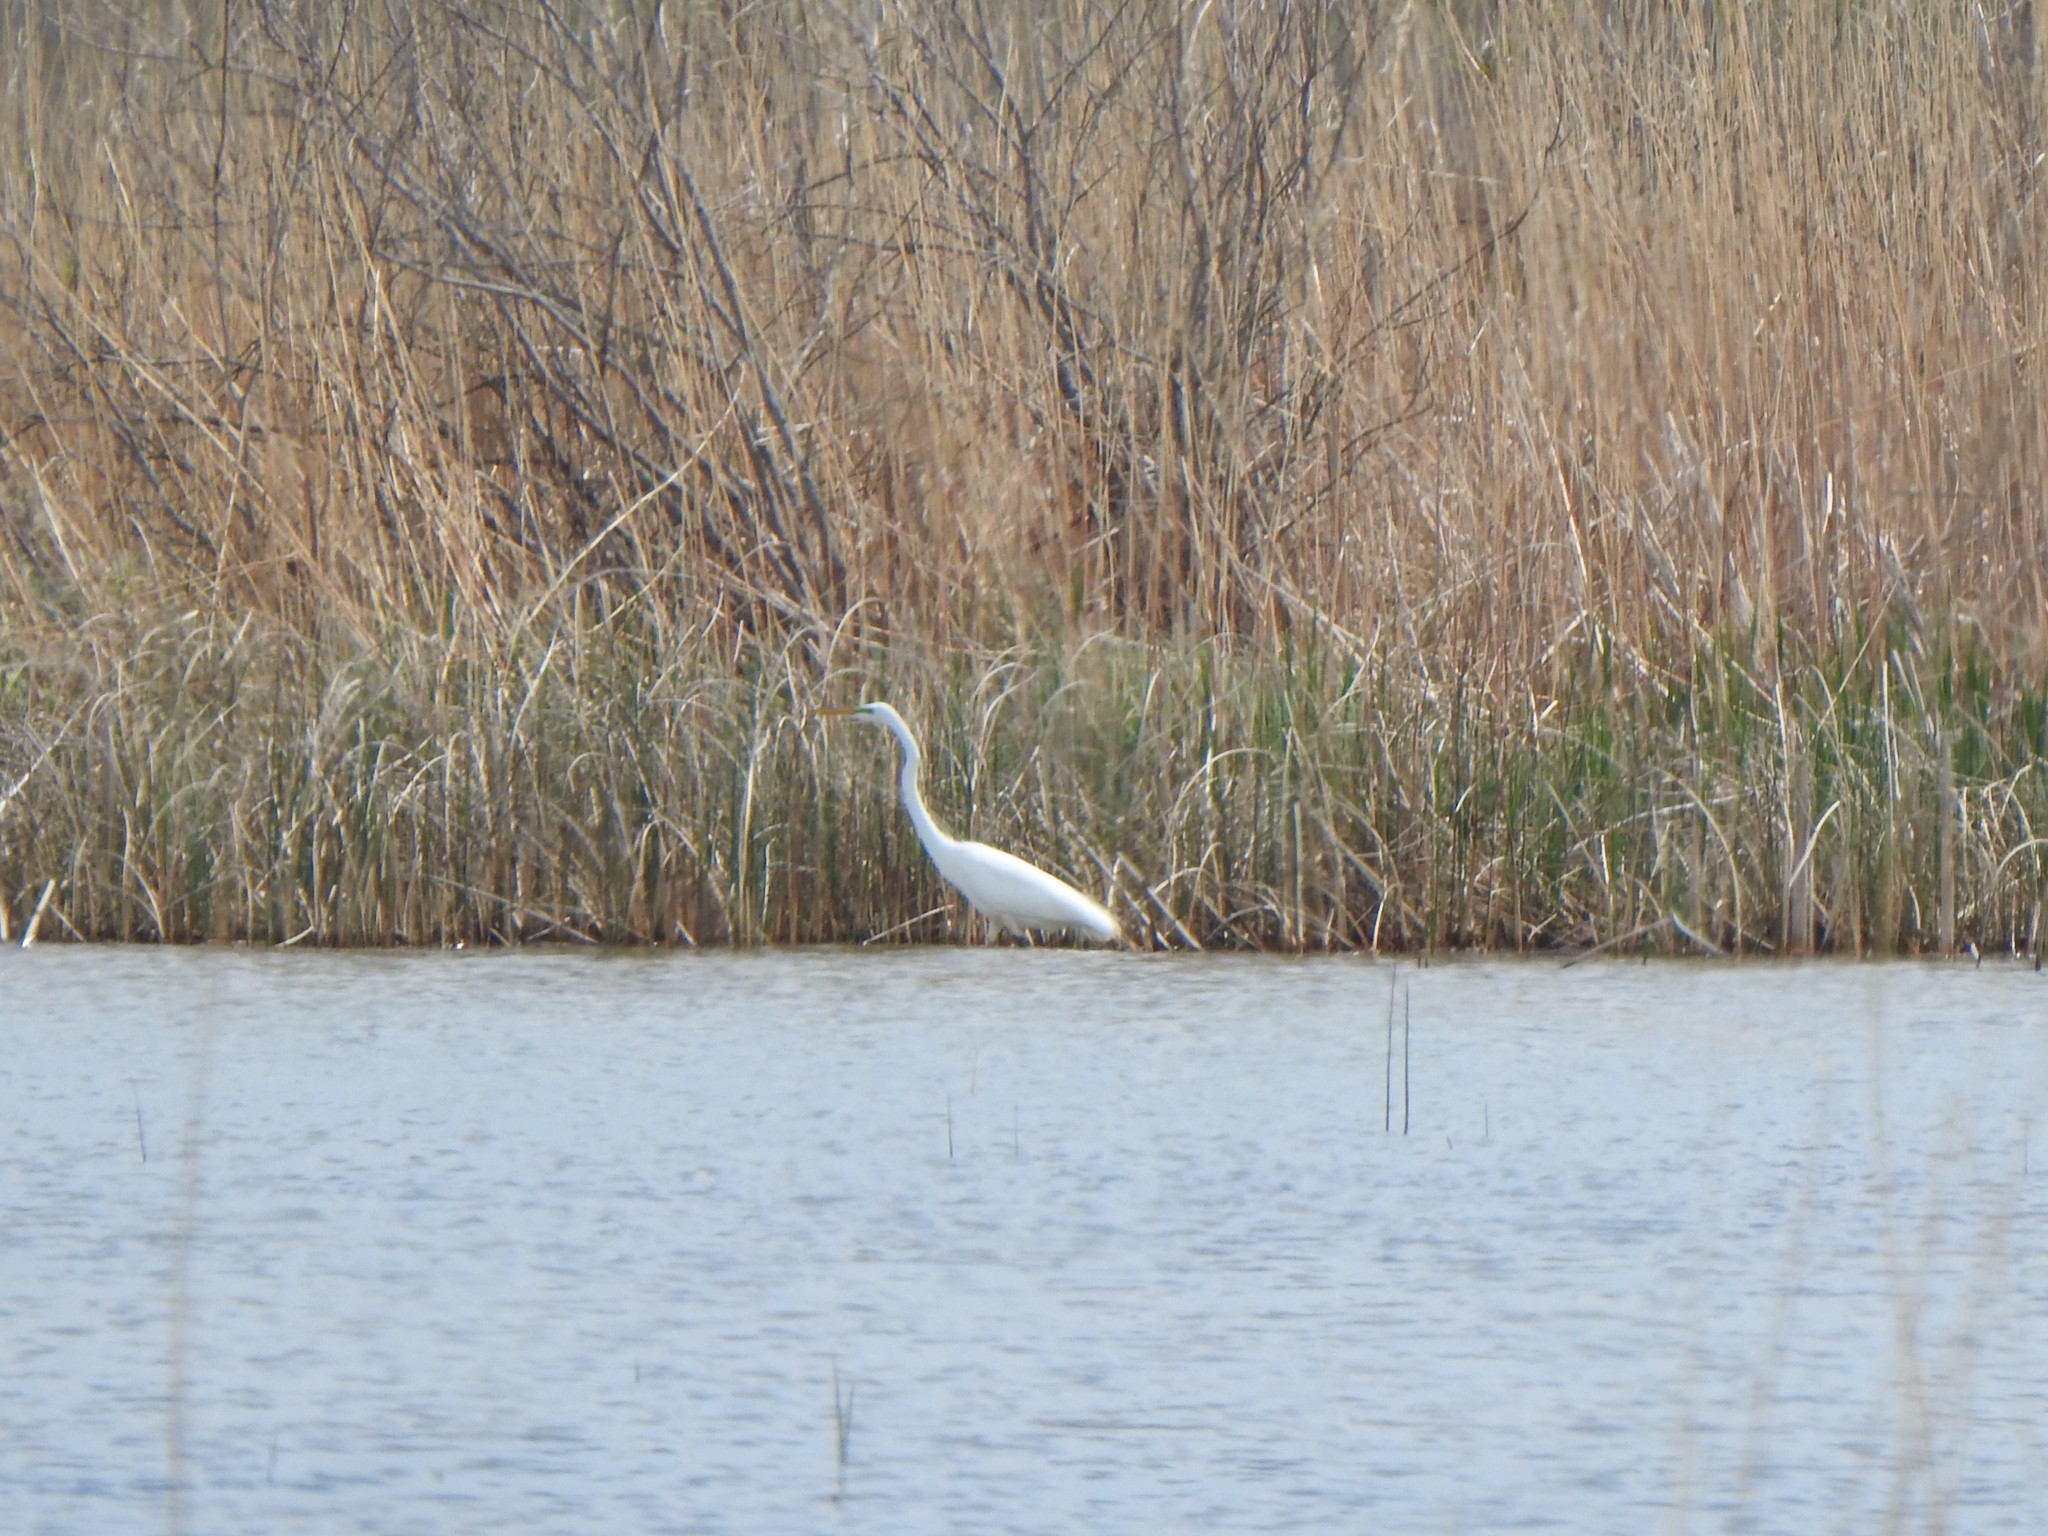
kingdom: Animalia
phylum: Chordata
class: Aves
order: Pelecaniformes
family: Ardeidae
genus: Ardea
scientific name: Ardea alba
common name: Great egret
